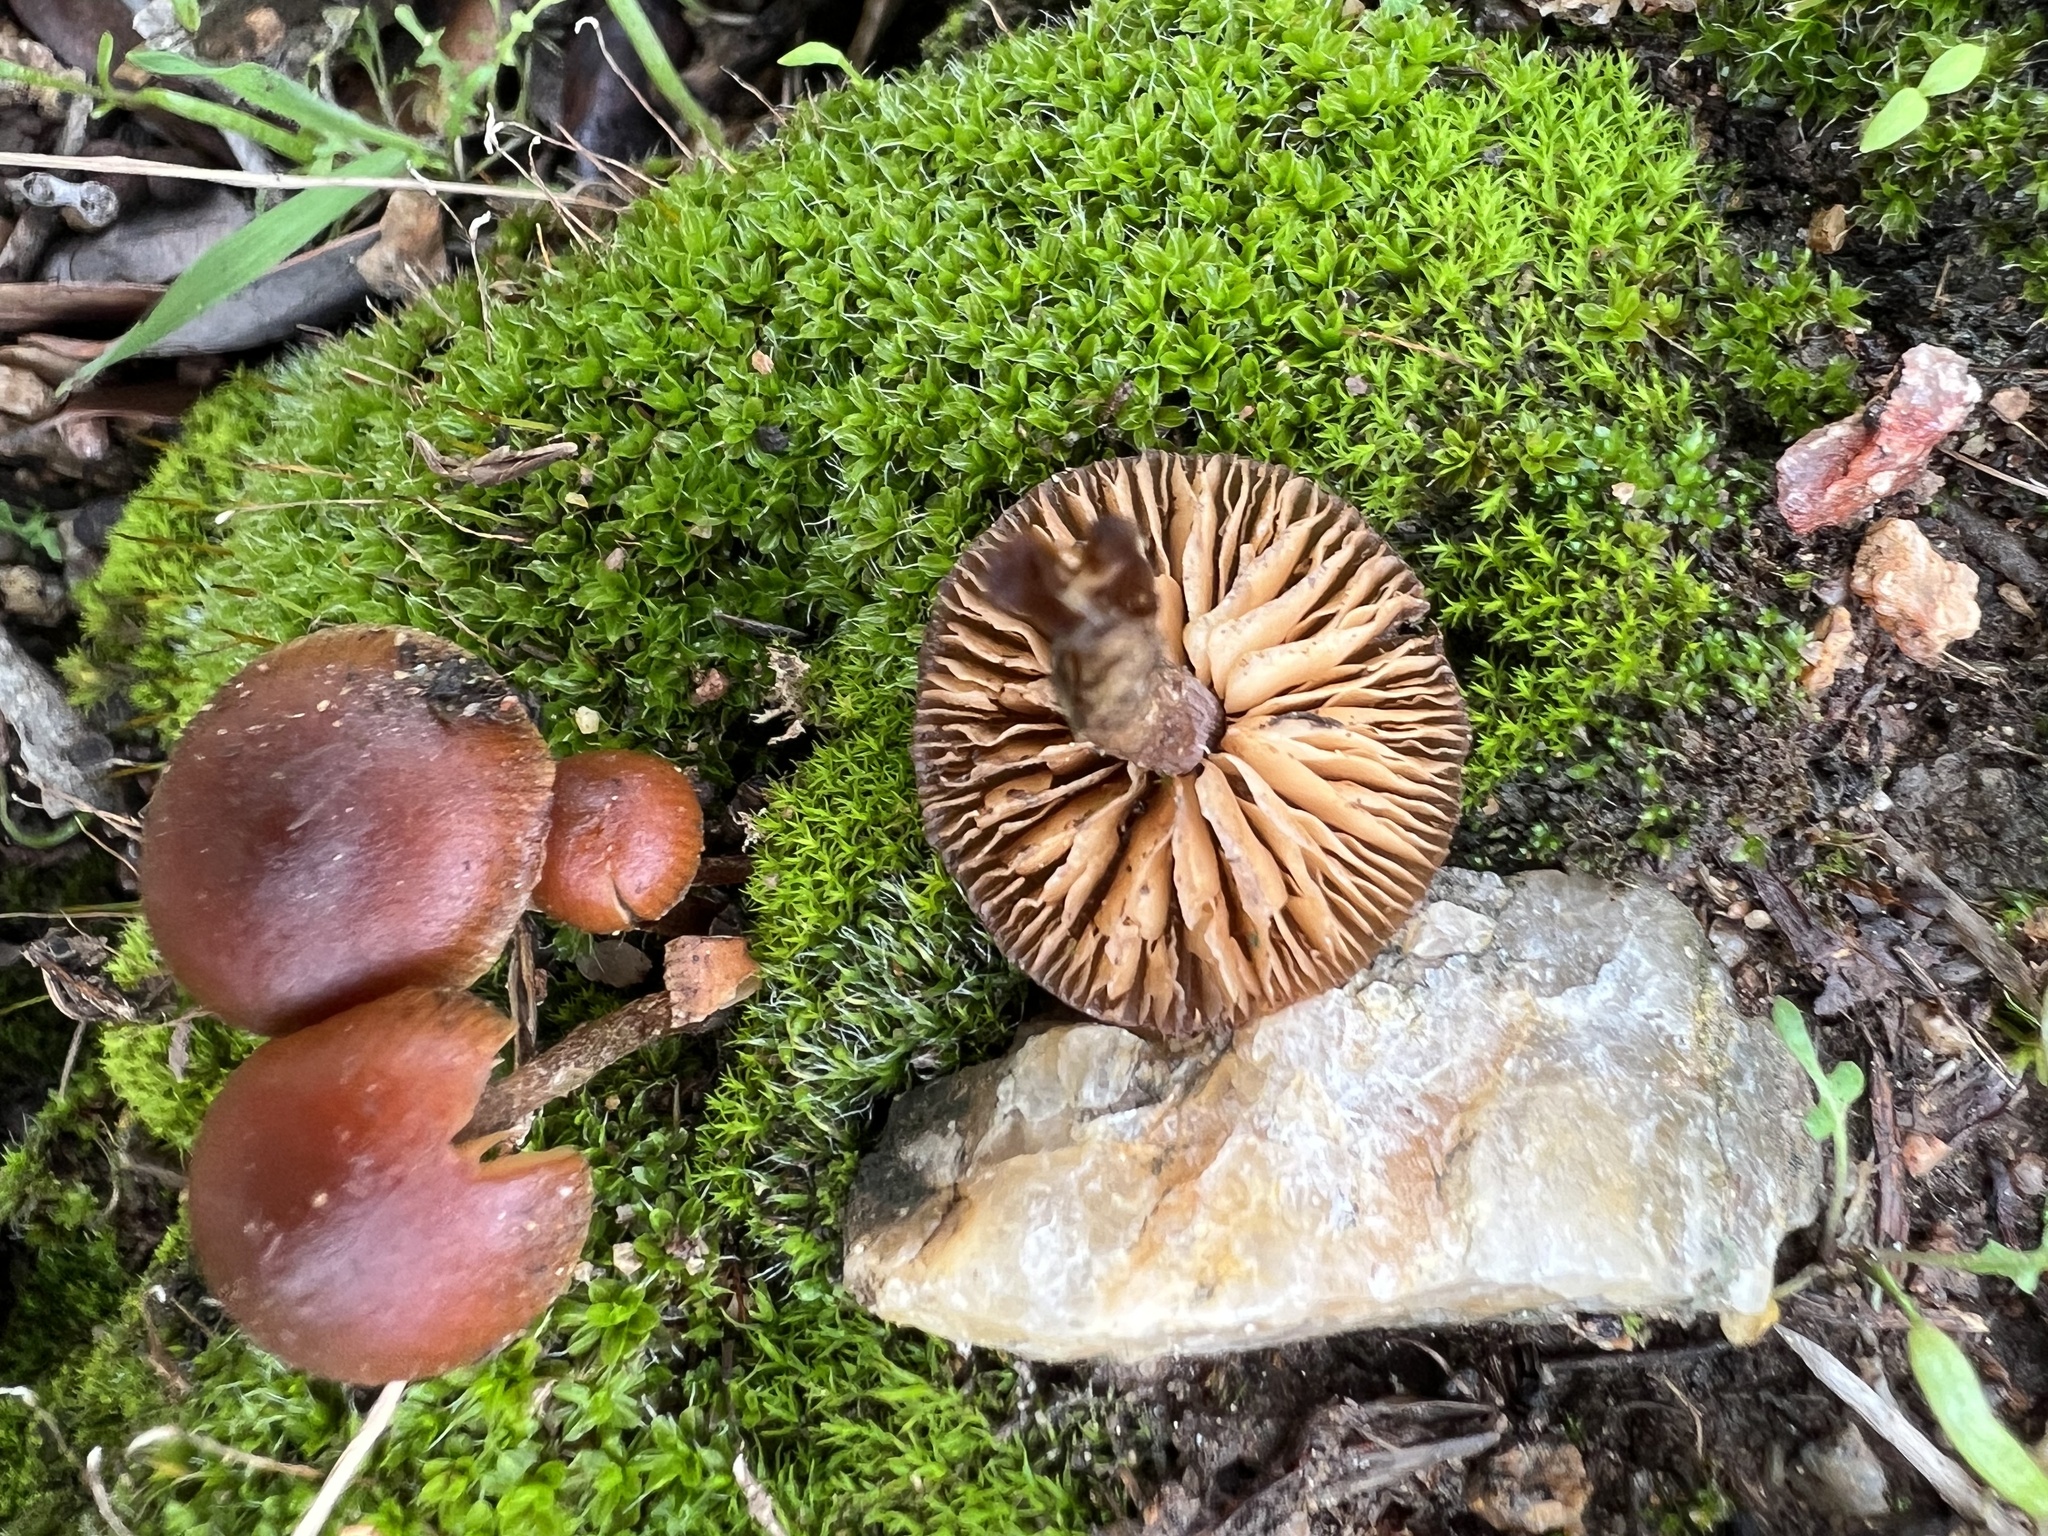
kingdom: Fungi
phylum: Basidiomycota
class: Agaricomycetes
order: Agaricales
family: Strophariaceae
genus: Deconica
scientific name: Deconica montana
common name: Mountain moss deconica
